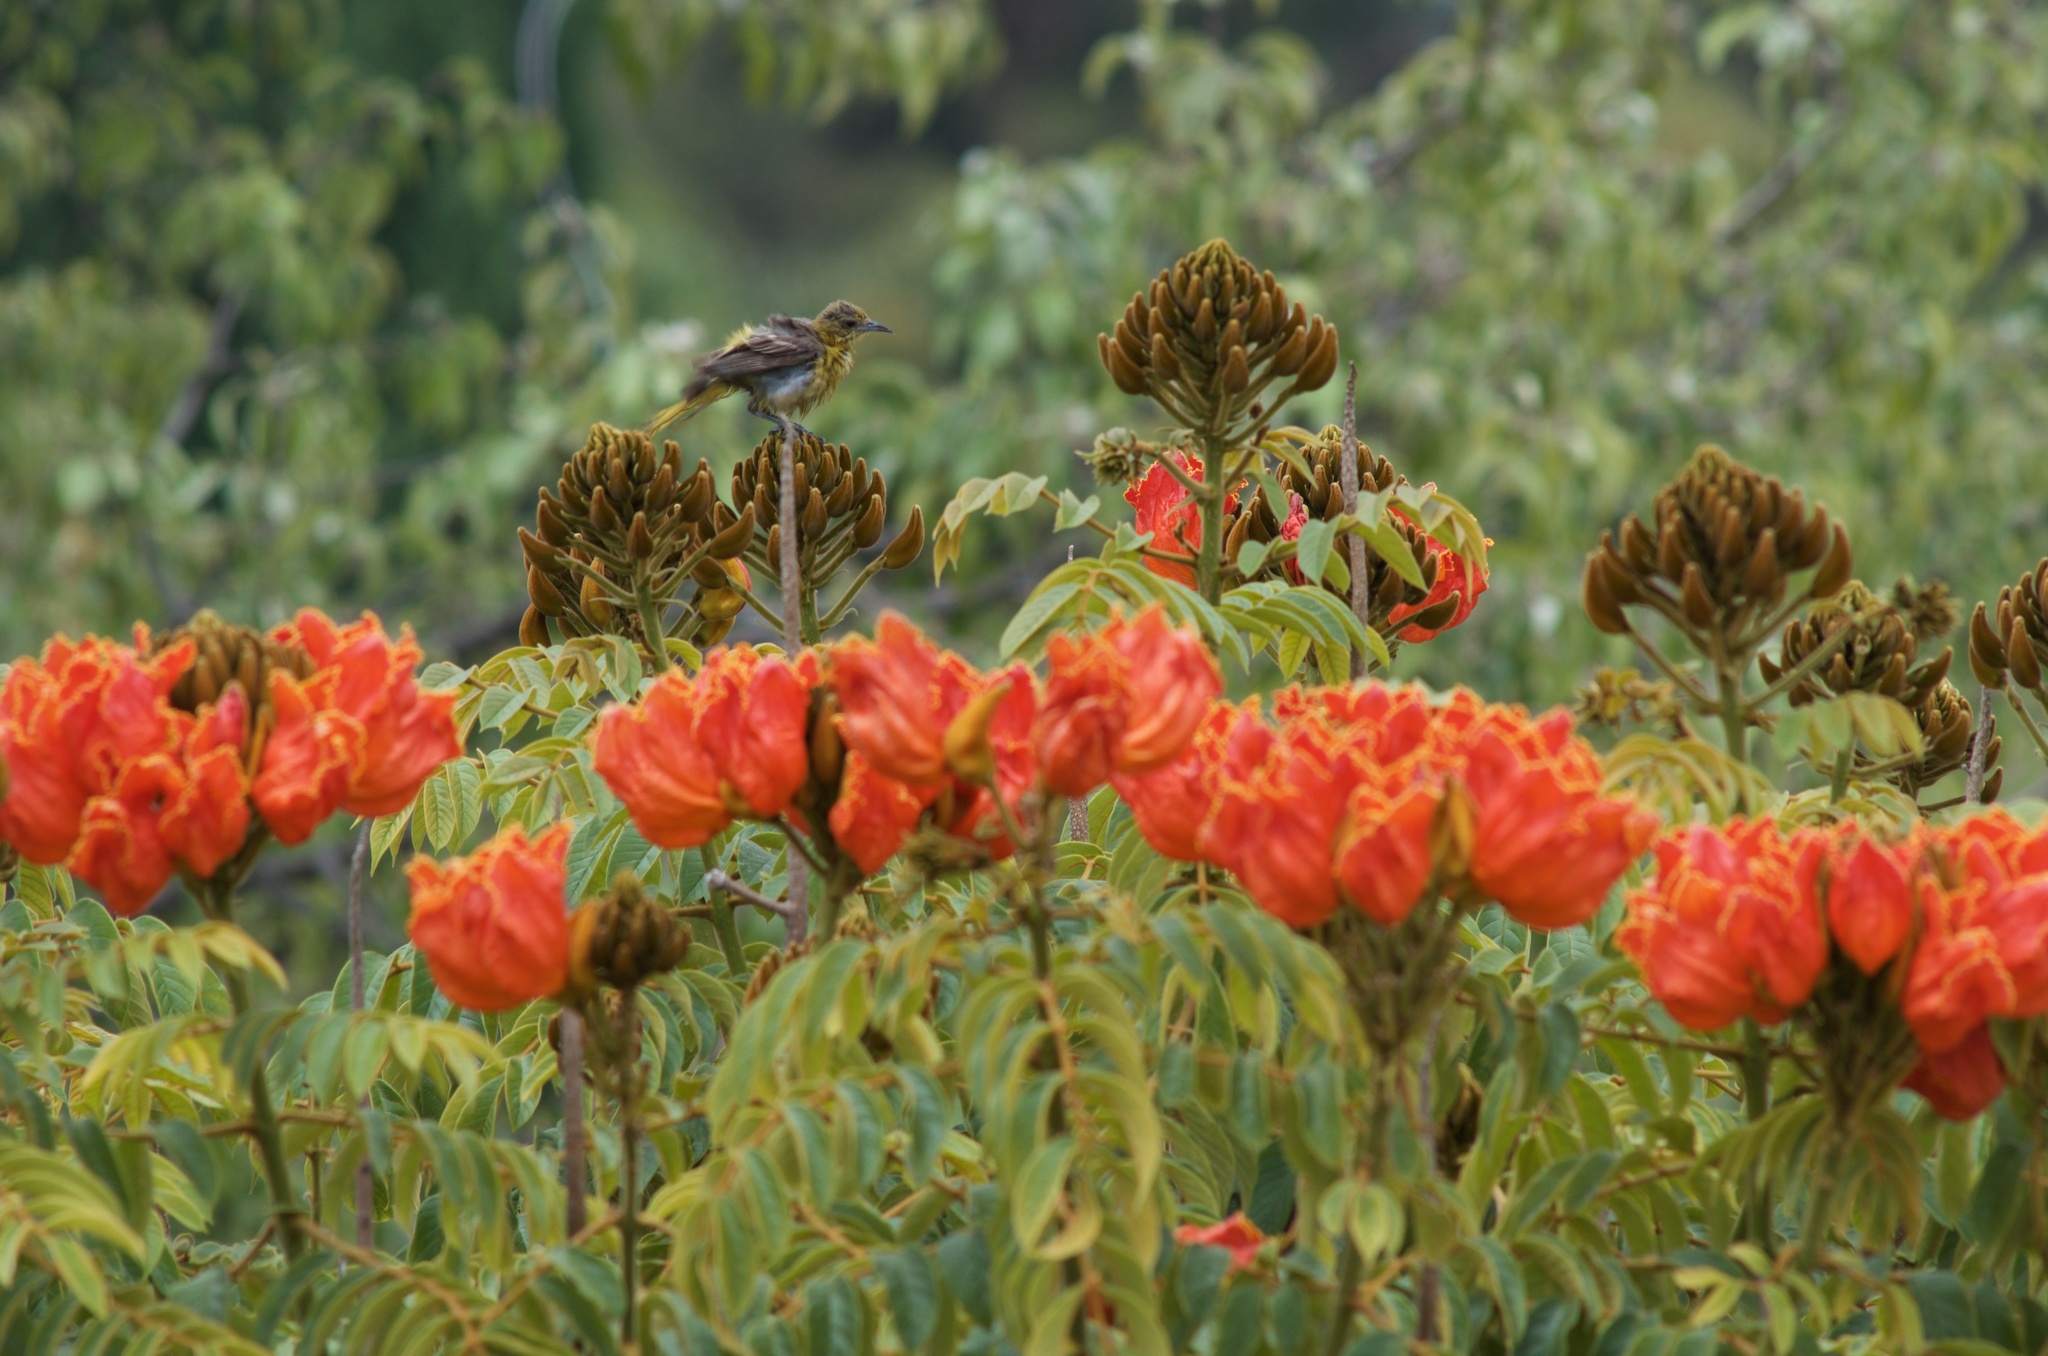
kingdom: Animalia
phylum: Chordata
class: Aves
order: Passeriformes
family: Icteridae
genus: Icterus
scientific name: Icterus cucullatus
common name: Hooded oriole
